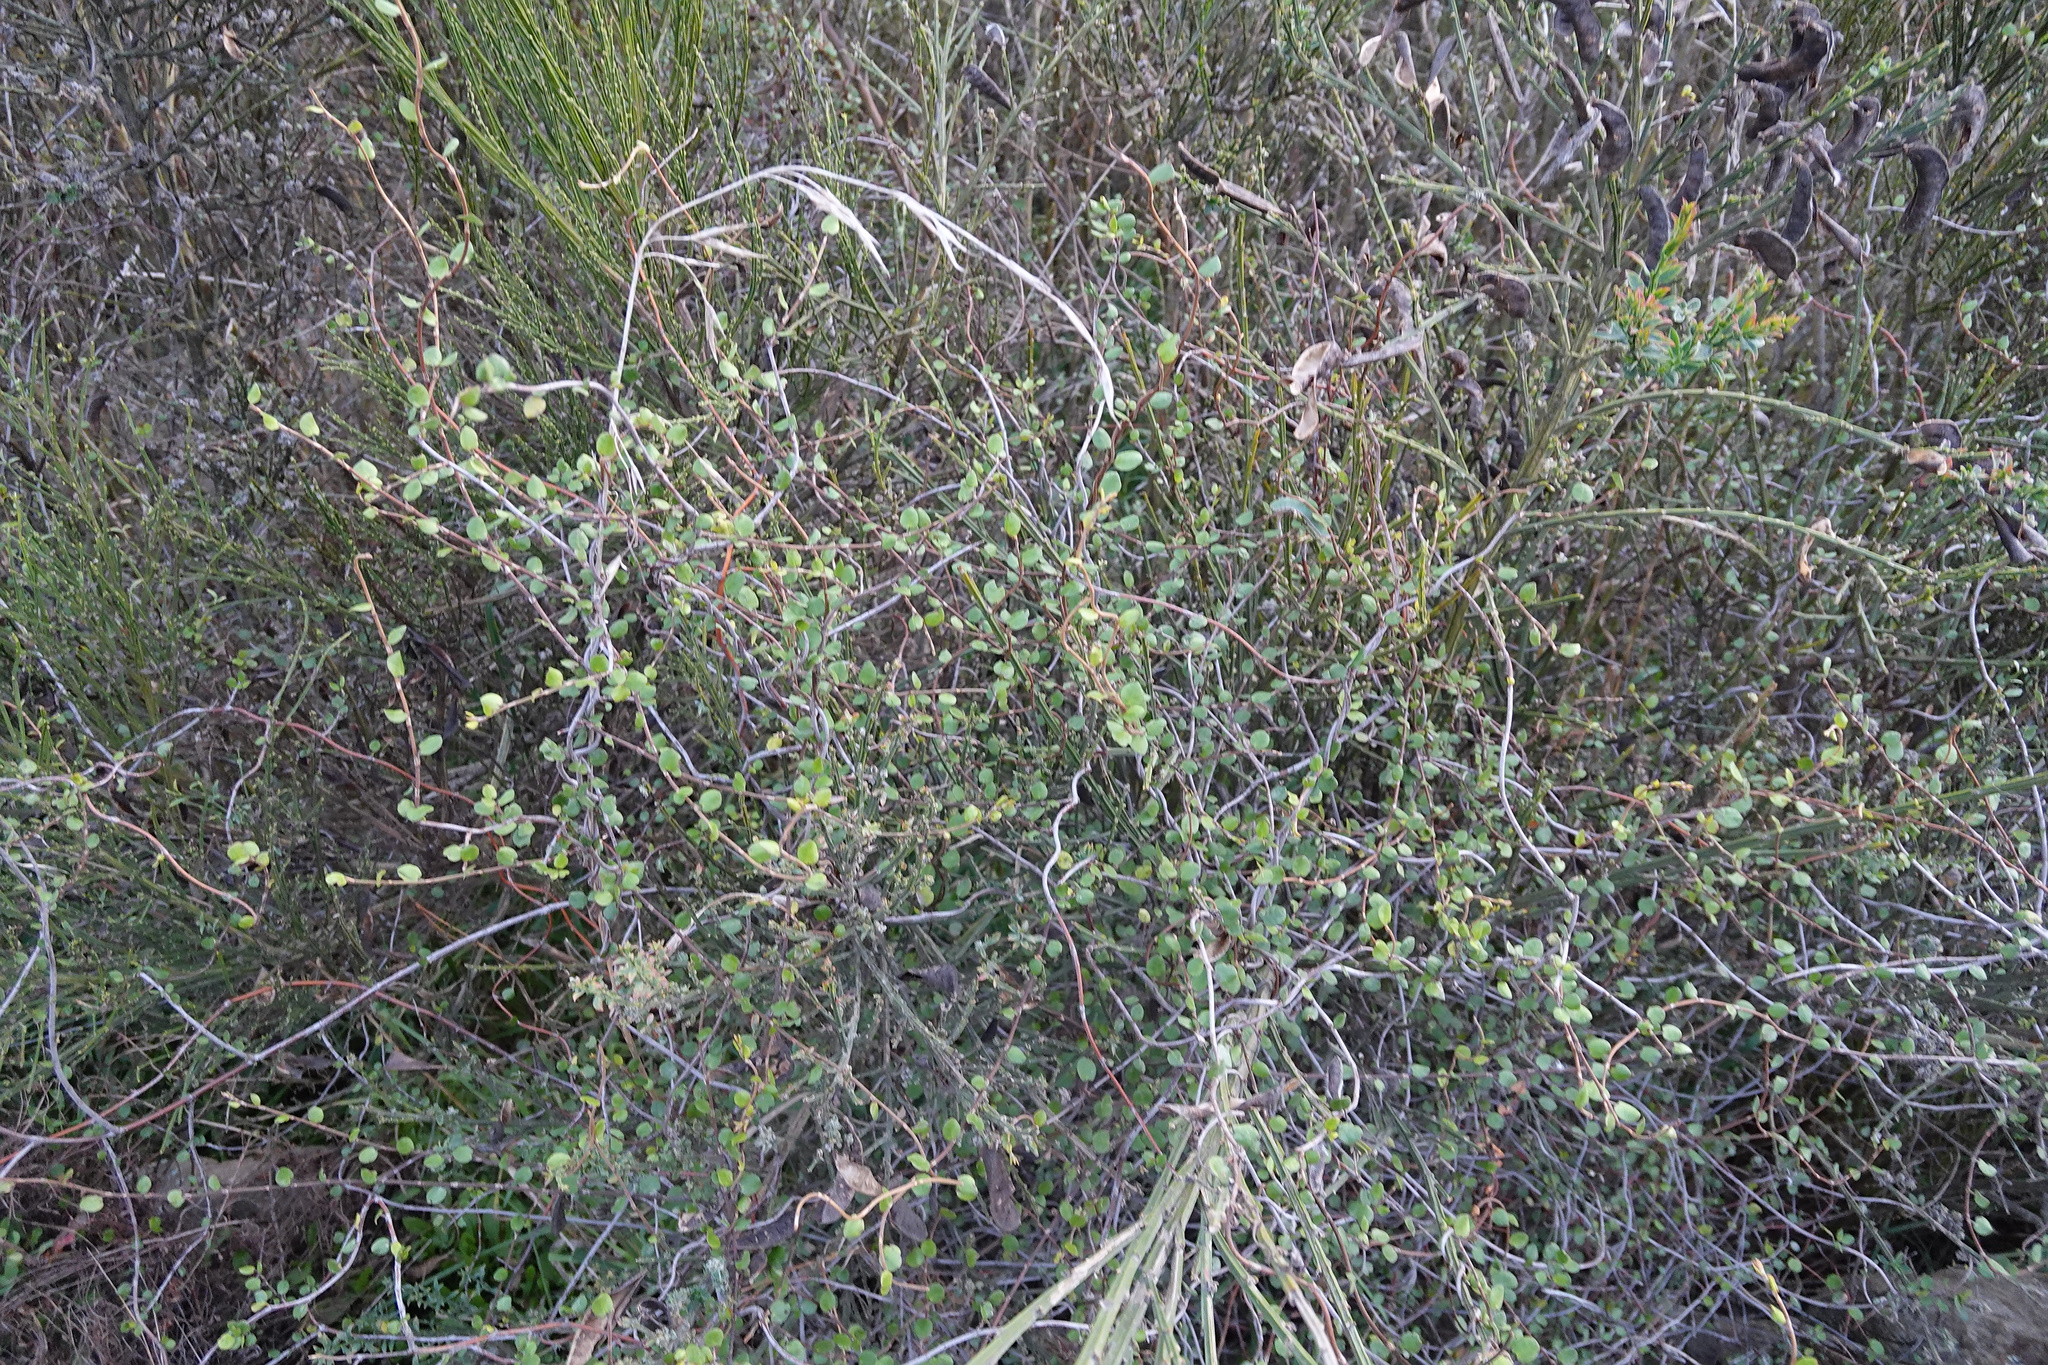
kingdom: Plantae
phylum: Tracheophyta
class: Magnoliopsida
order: Caryophyllales
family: Polygonaceae
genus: Muehlenbeckia
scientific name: Muehlenbeckia complexa
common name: Wireplant
